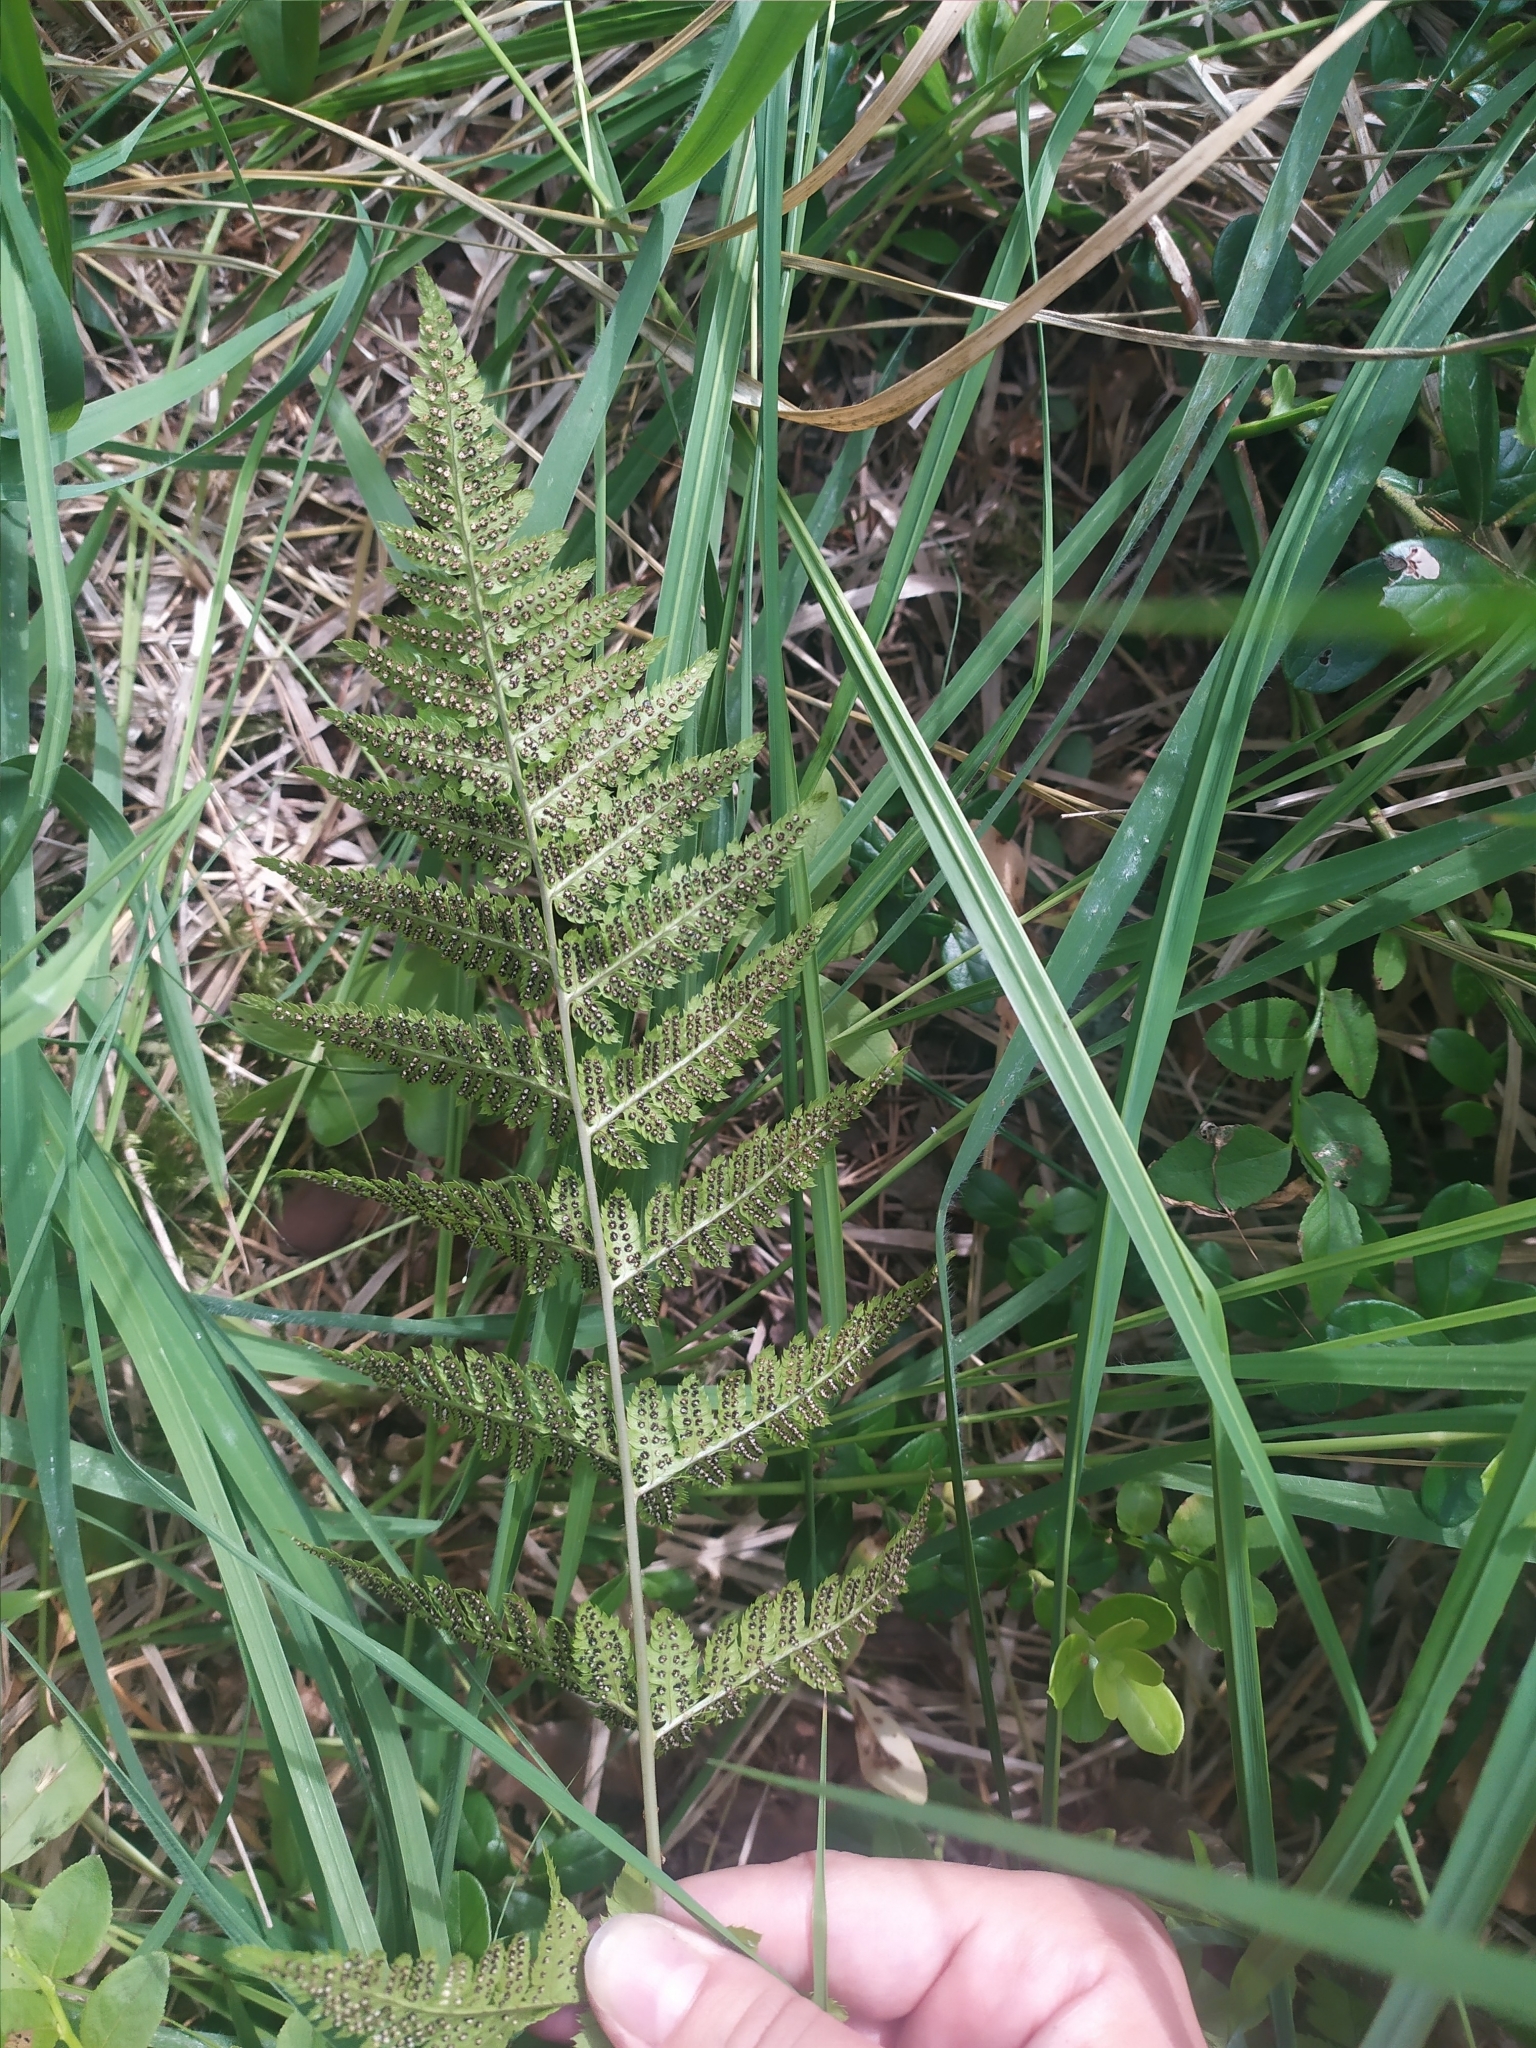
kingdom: Plantae
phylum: Tracheophyta
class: Polypodiopsida
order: Polypodiales
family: Dryopteridaceae
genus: Dryopteris
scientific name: Dryopteris carthusiana
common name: Narrow buckler-fern
